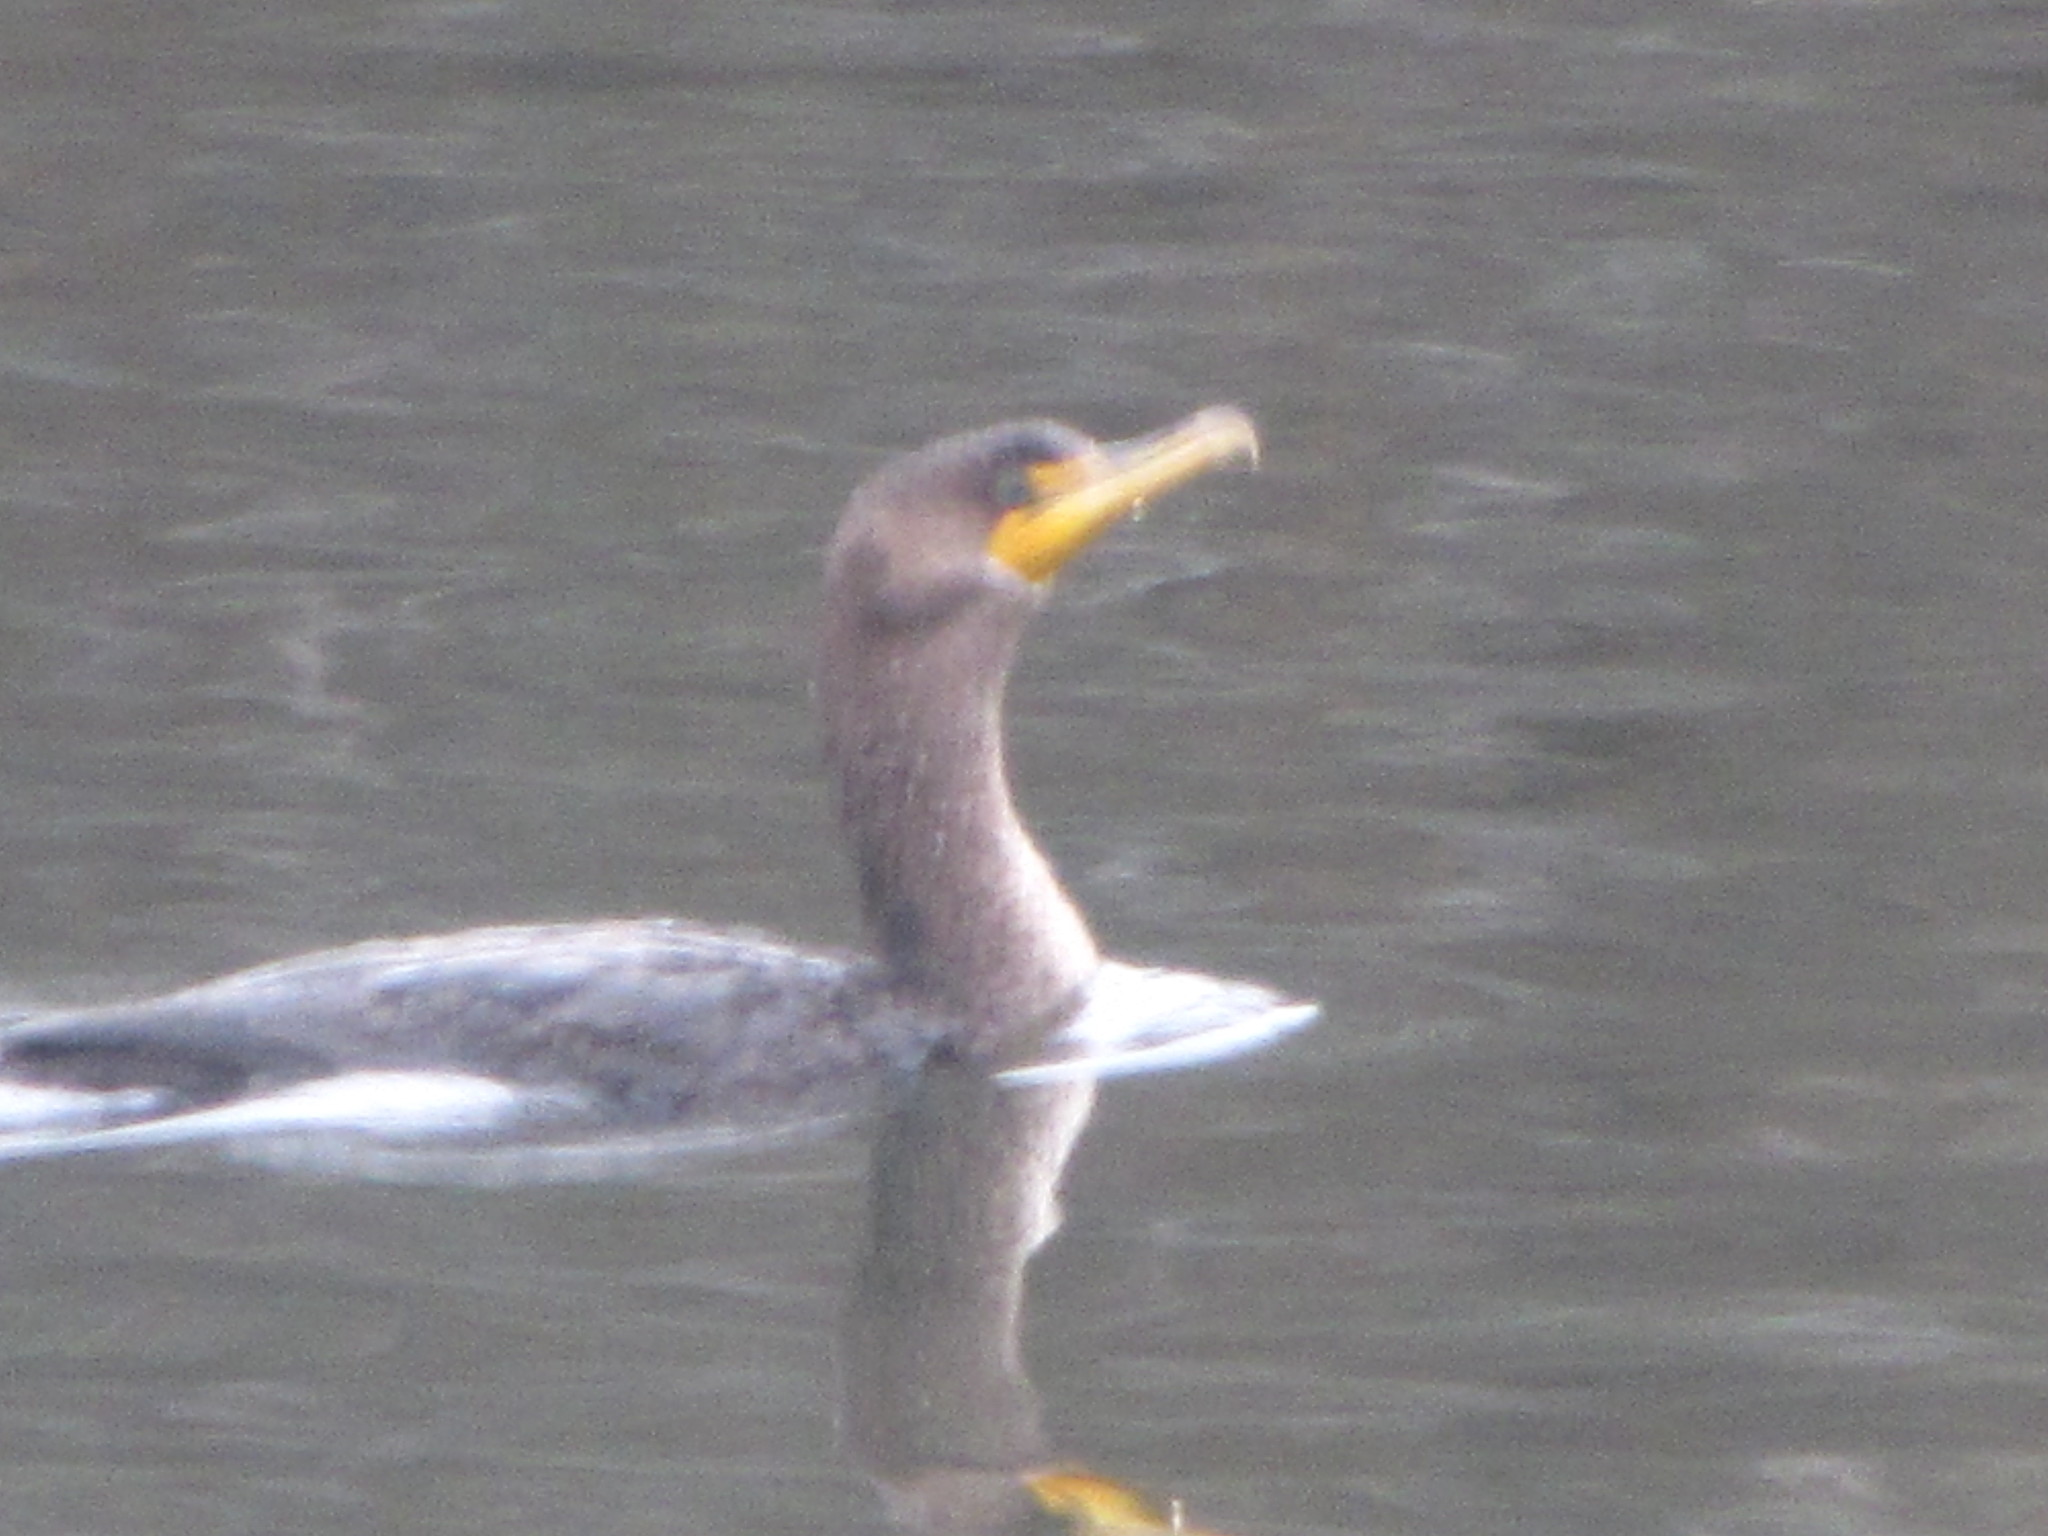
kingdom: Animalia
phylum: Chordata
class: Aves
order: Suliformes
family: Phalacrocoracidae
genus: Phalacrocorax
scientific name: Phalacrocorax auritus
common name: Double-crested cormorant
